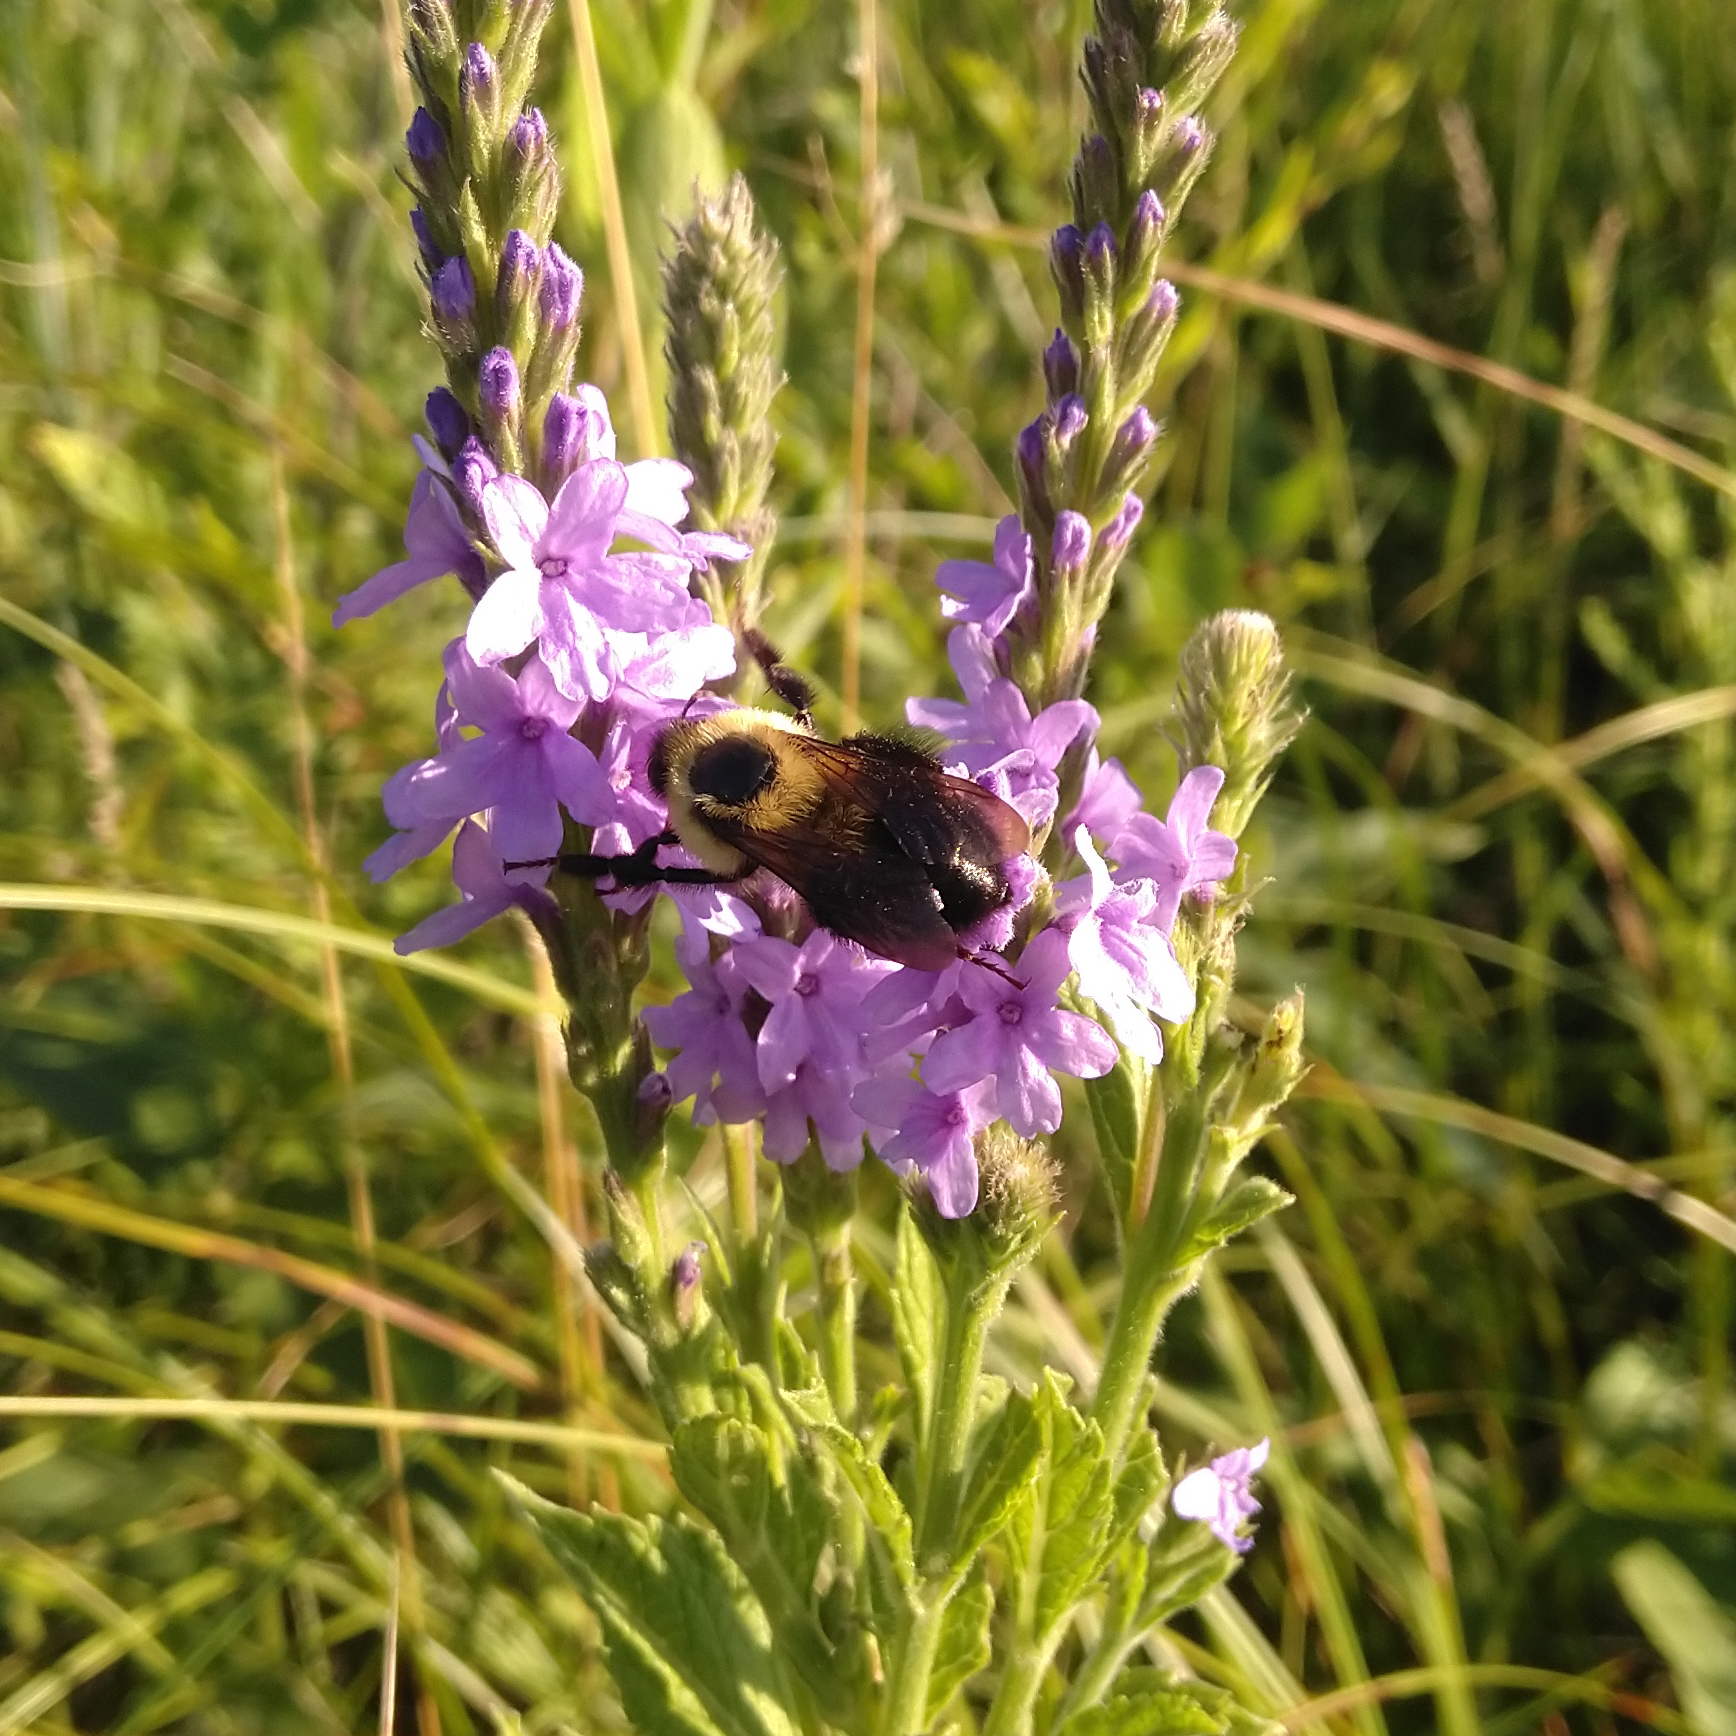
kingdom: Animalia
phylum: Arthropoda
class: Insecta
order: Hymenoptera
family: Apidae
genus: Bombus
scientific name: Bombus bimaculatus
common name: Two-spotted bumble bee
